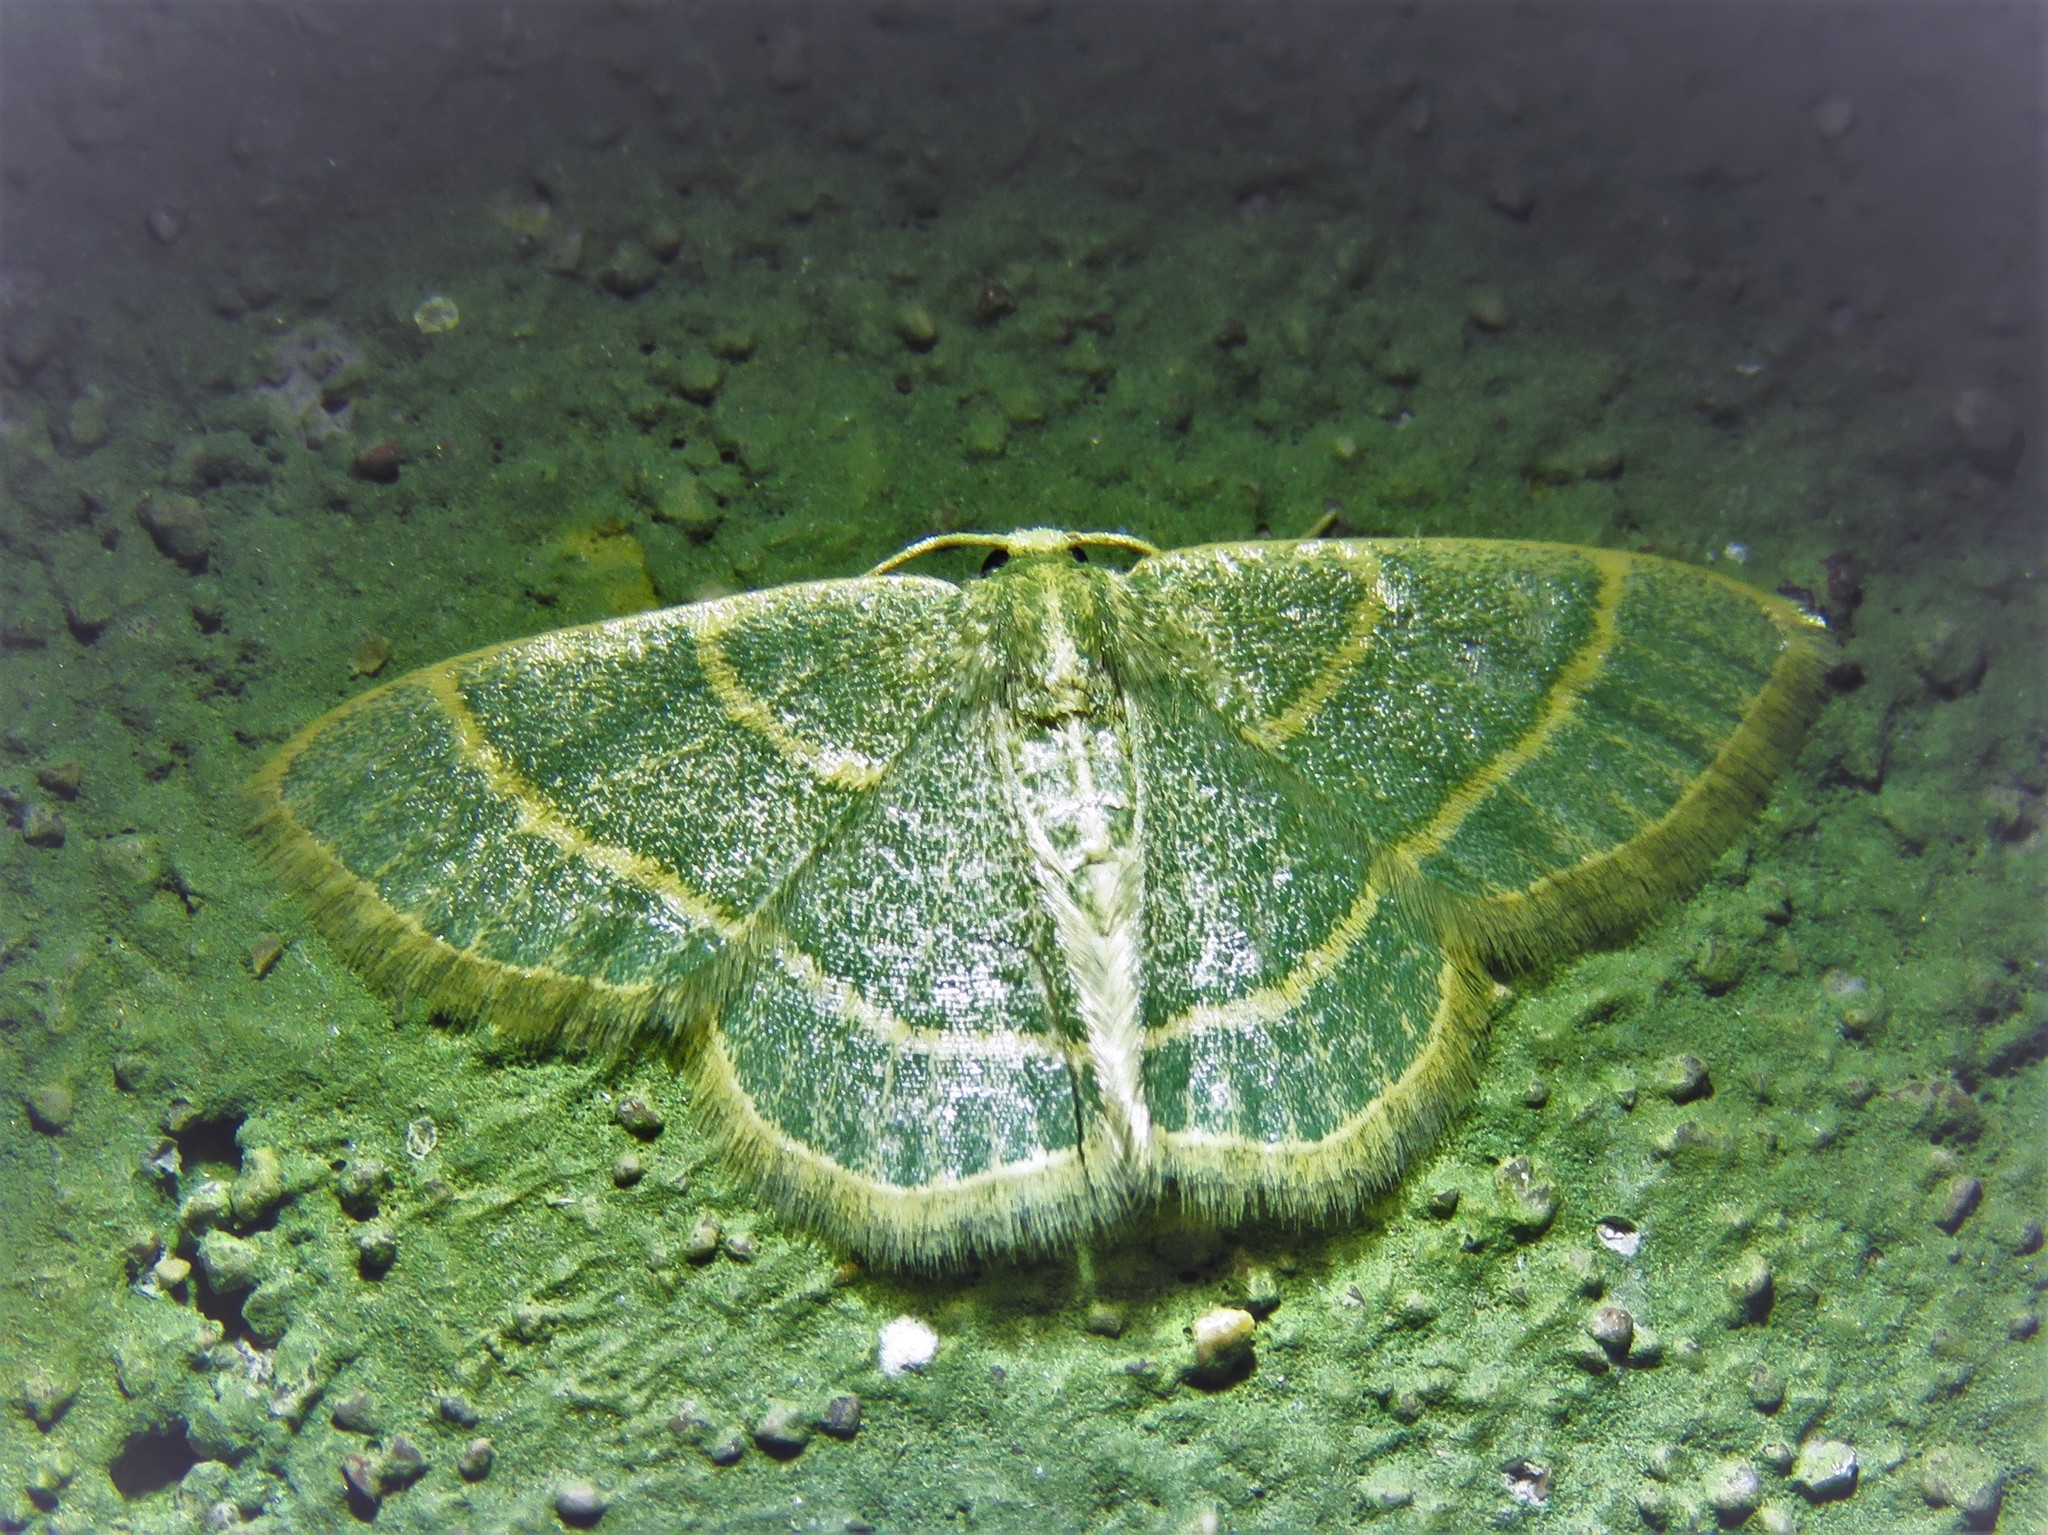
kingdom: Animalia
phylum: Arthropoda
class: Insecta
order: Lepidoptera
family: Geometridae
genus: Chlorochlamys
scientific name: Chlorochlamys chloroleucaria
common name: Blackberry looper
